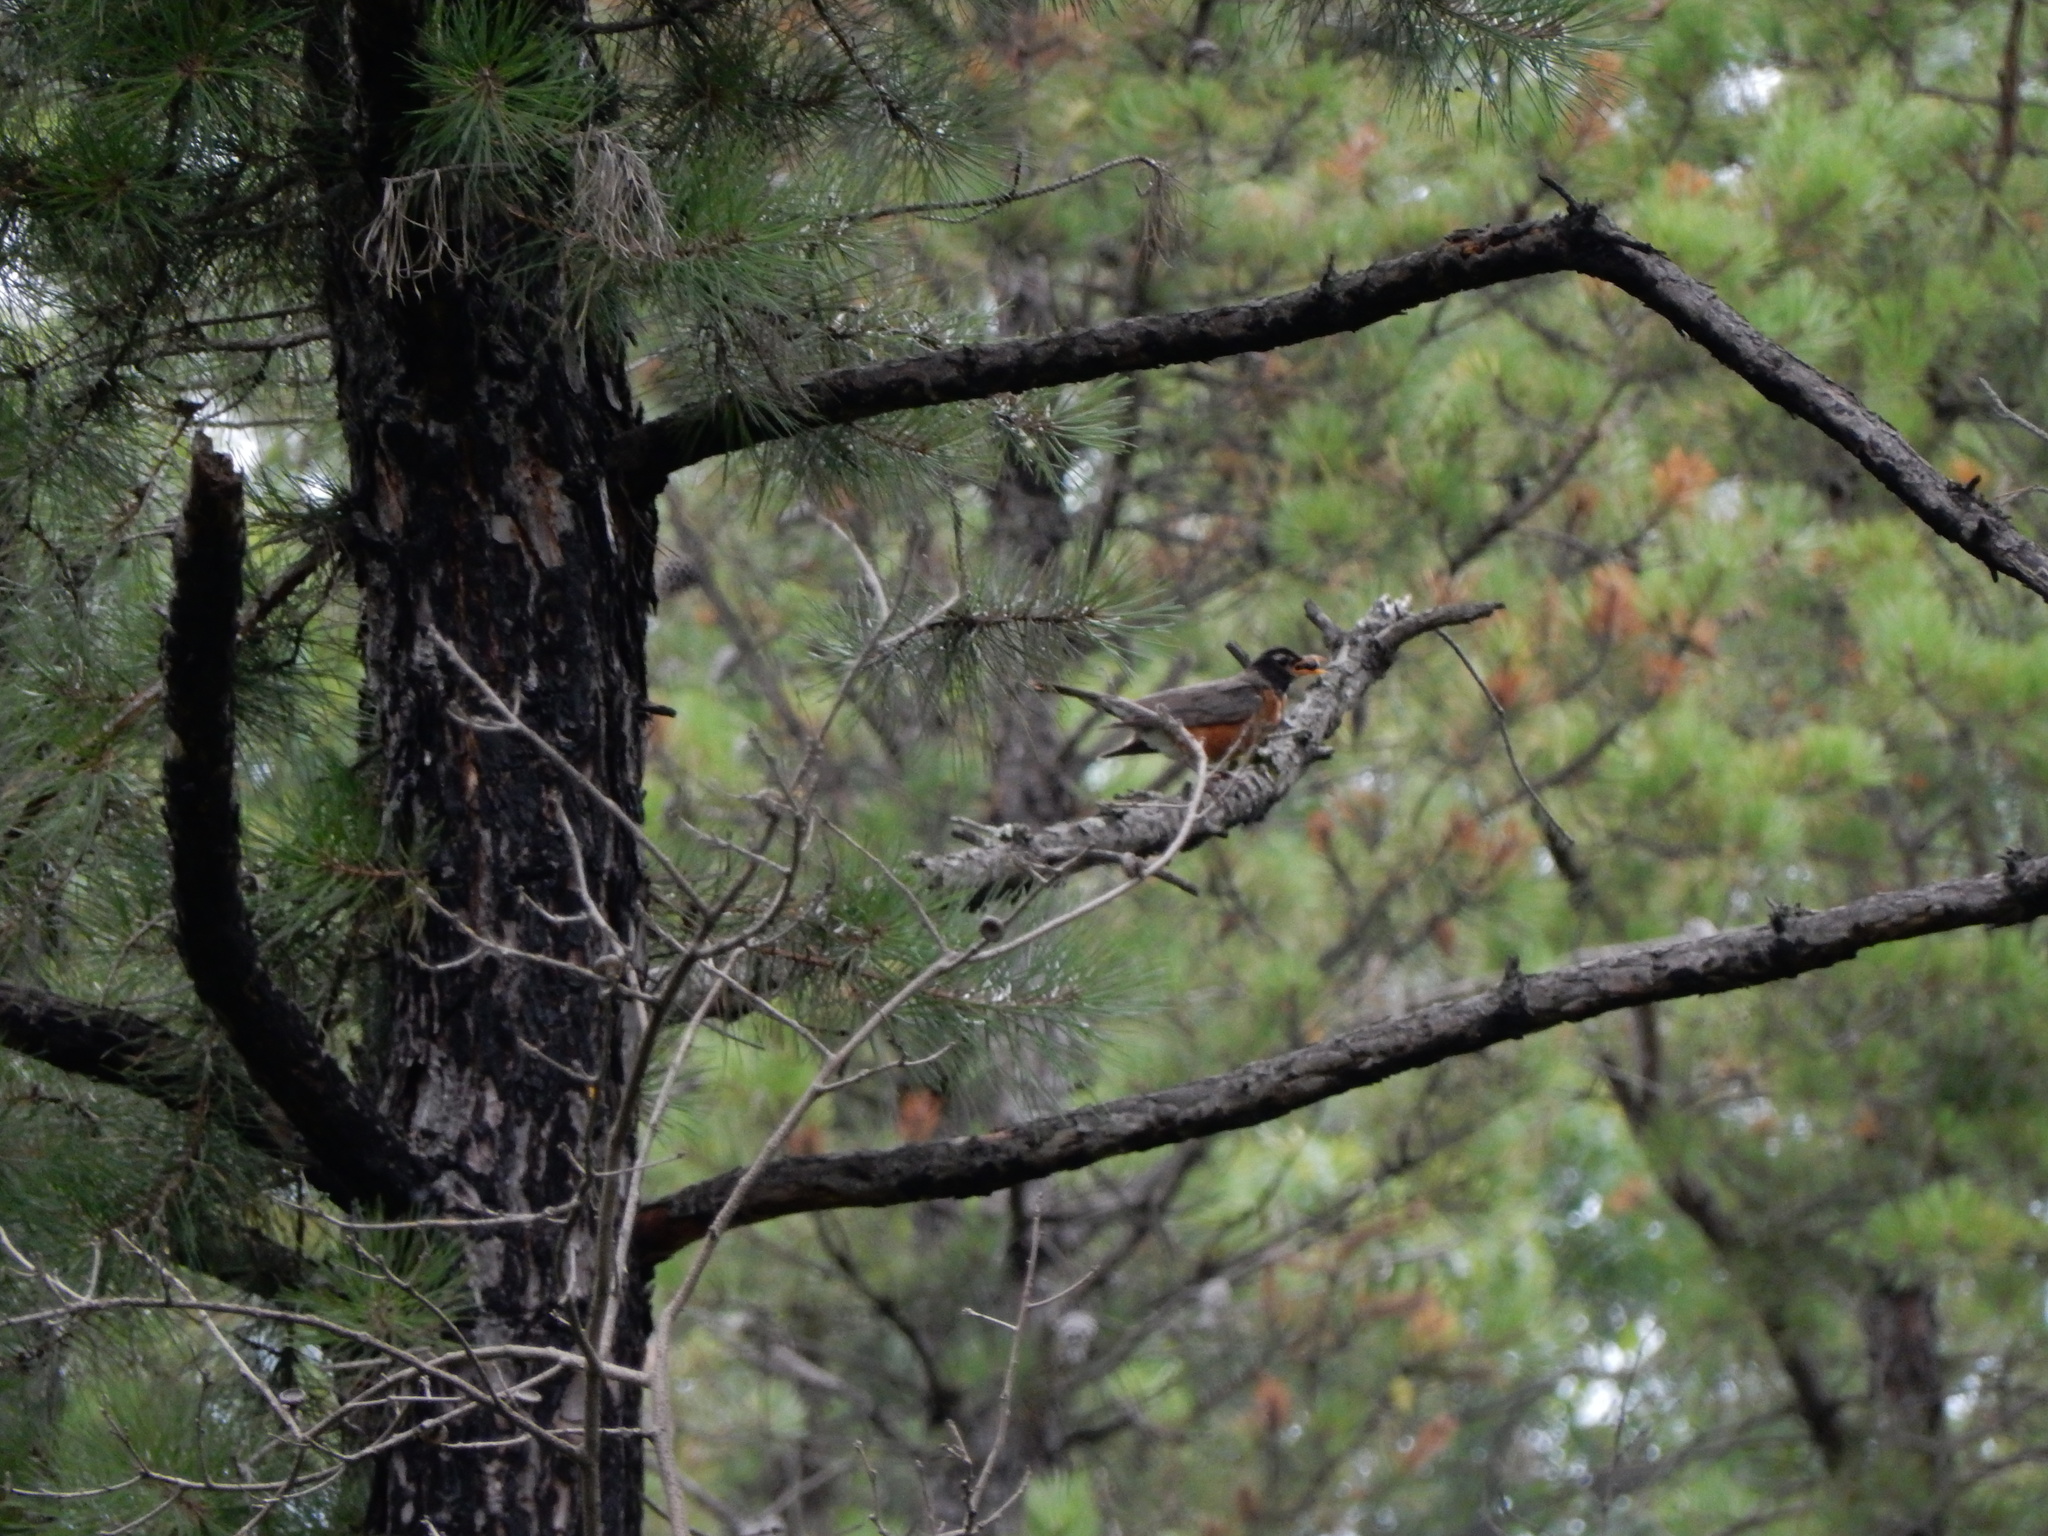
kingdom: Animalia
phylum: Chordata
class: Aves
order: Passeriformes
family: Turdidae
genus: Turdus
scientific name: Turdus migratorius
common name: American robin
